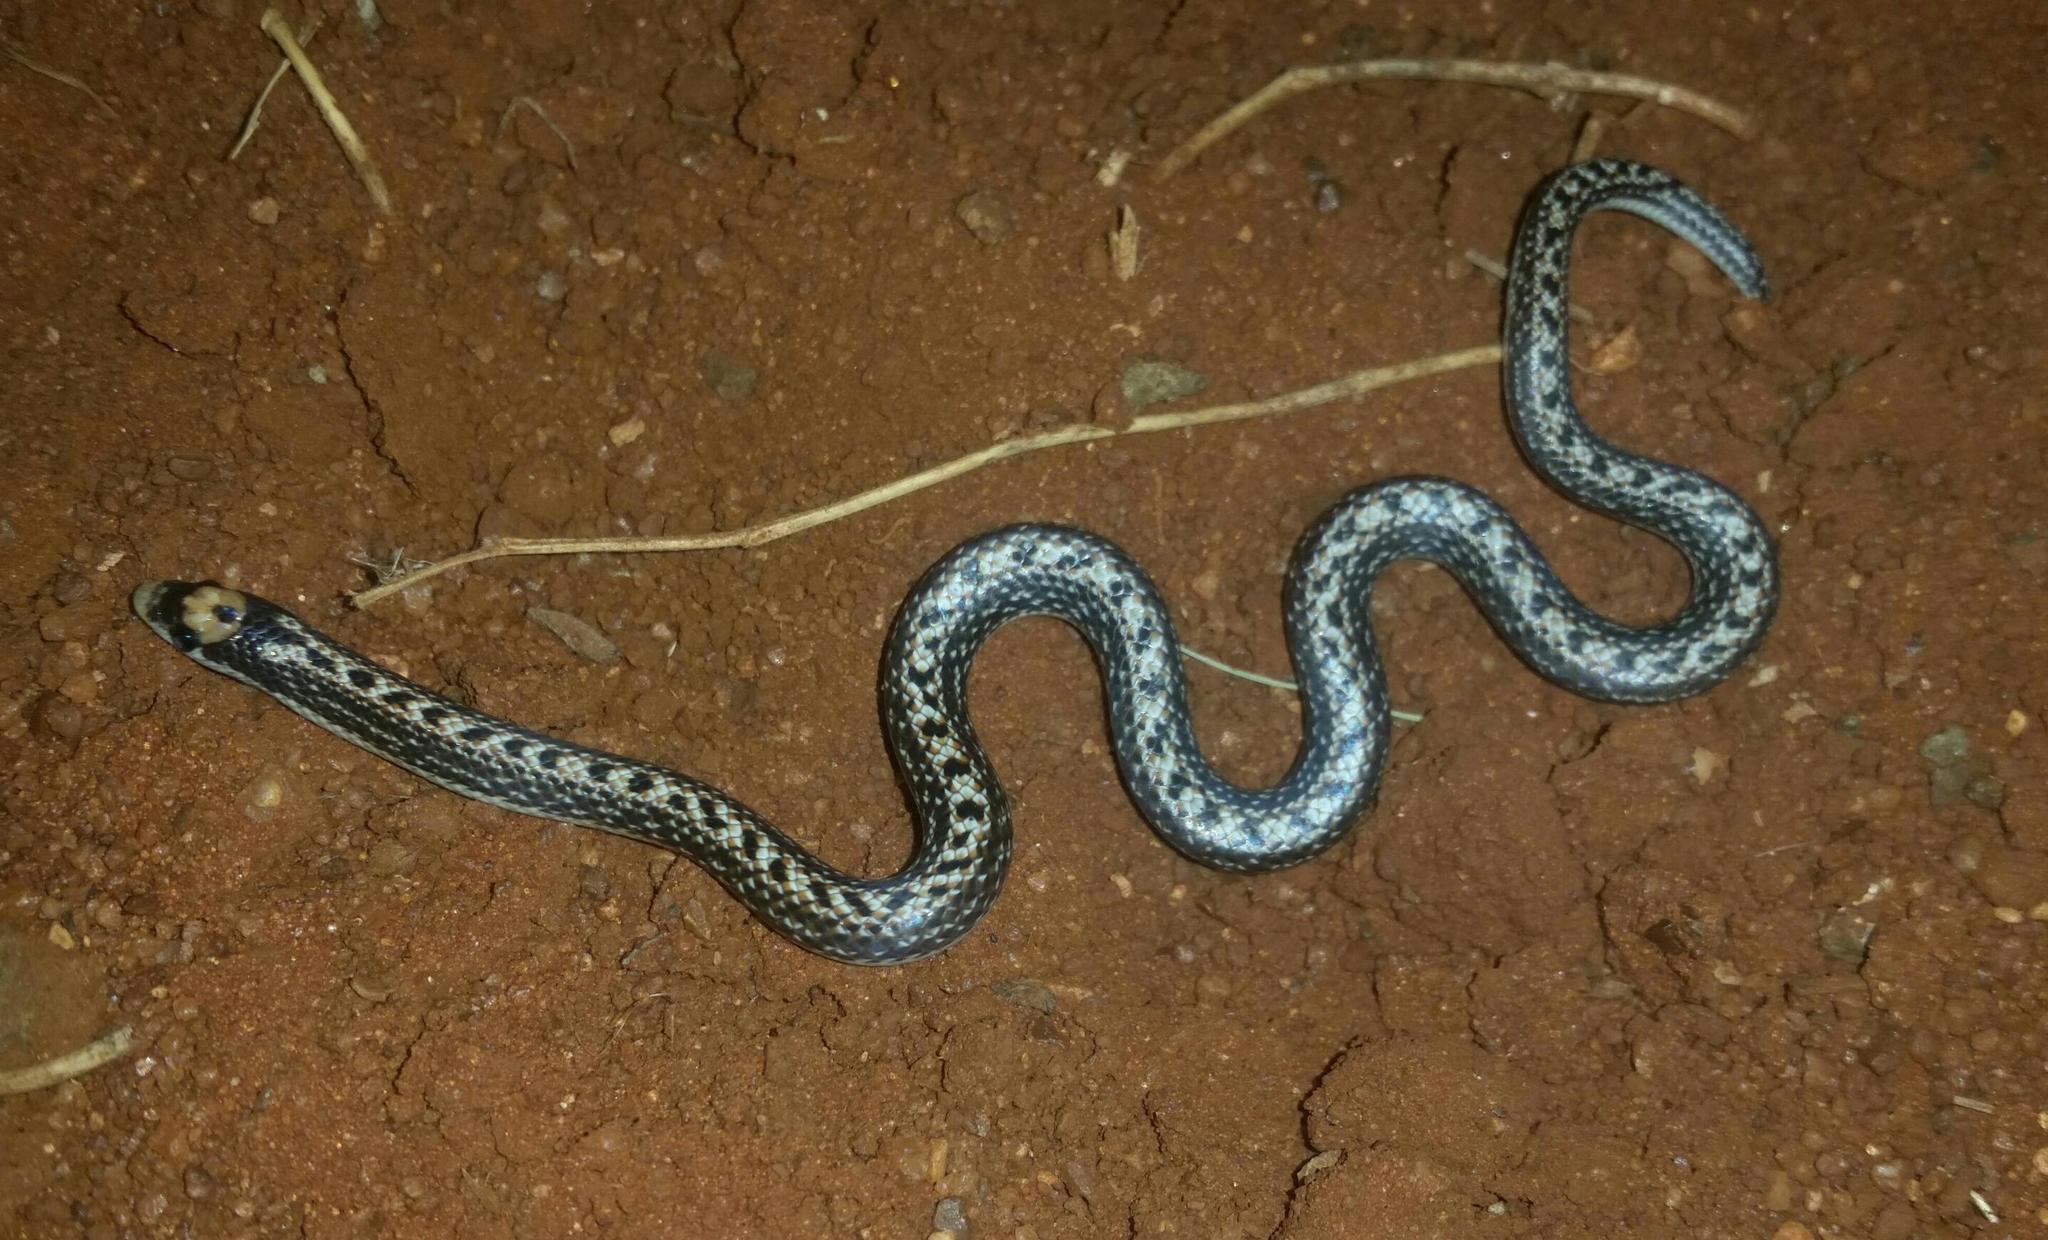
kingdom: Animalia
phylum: Chordata
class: Squamata
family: Prosymnidae
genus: Prosymna
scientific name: Prosymna bivittata
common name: Two-striped shovel-snout
